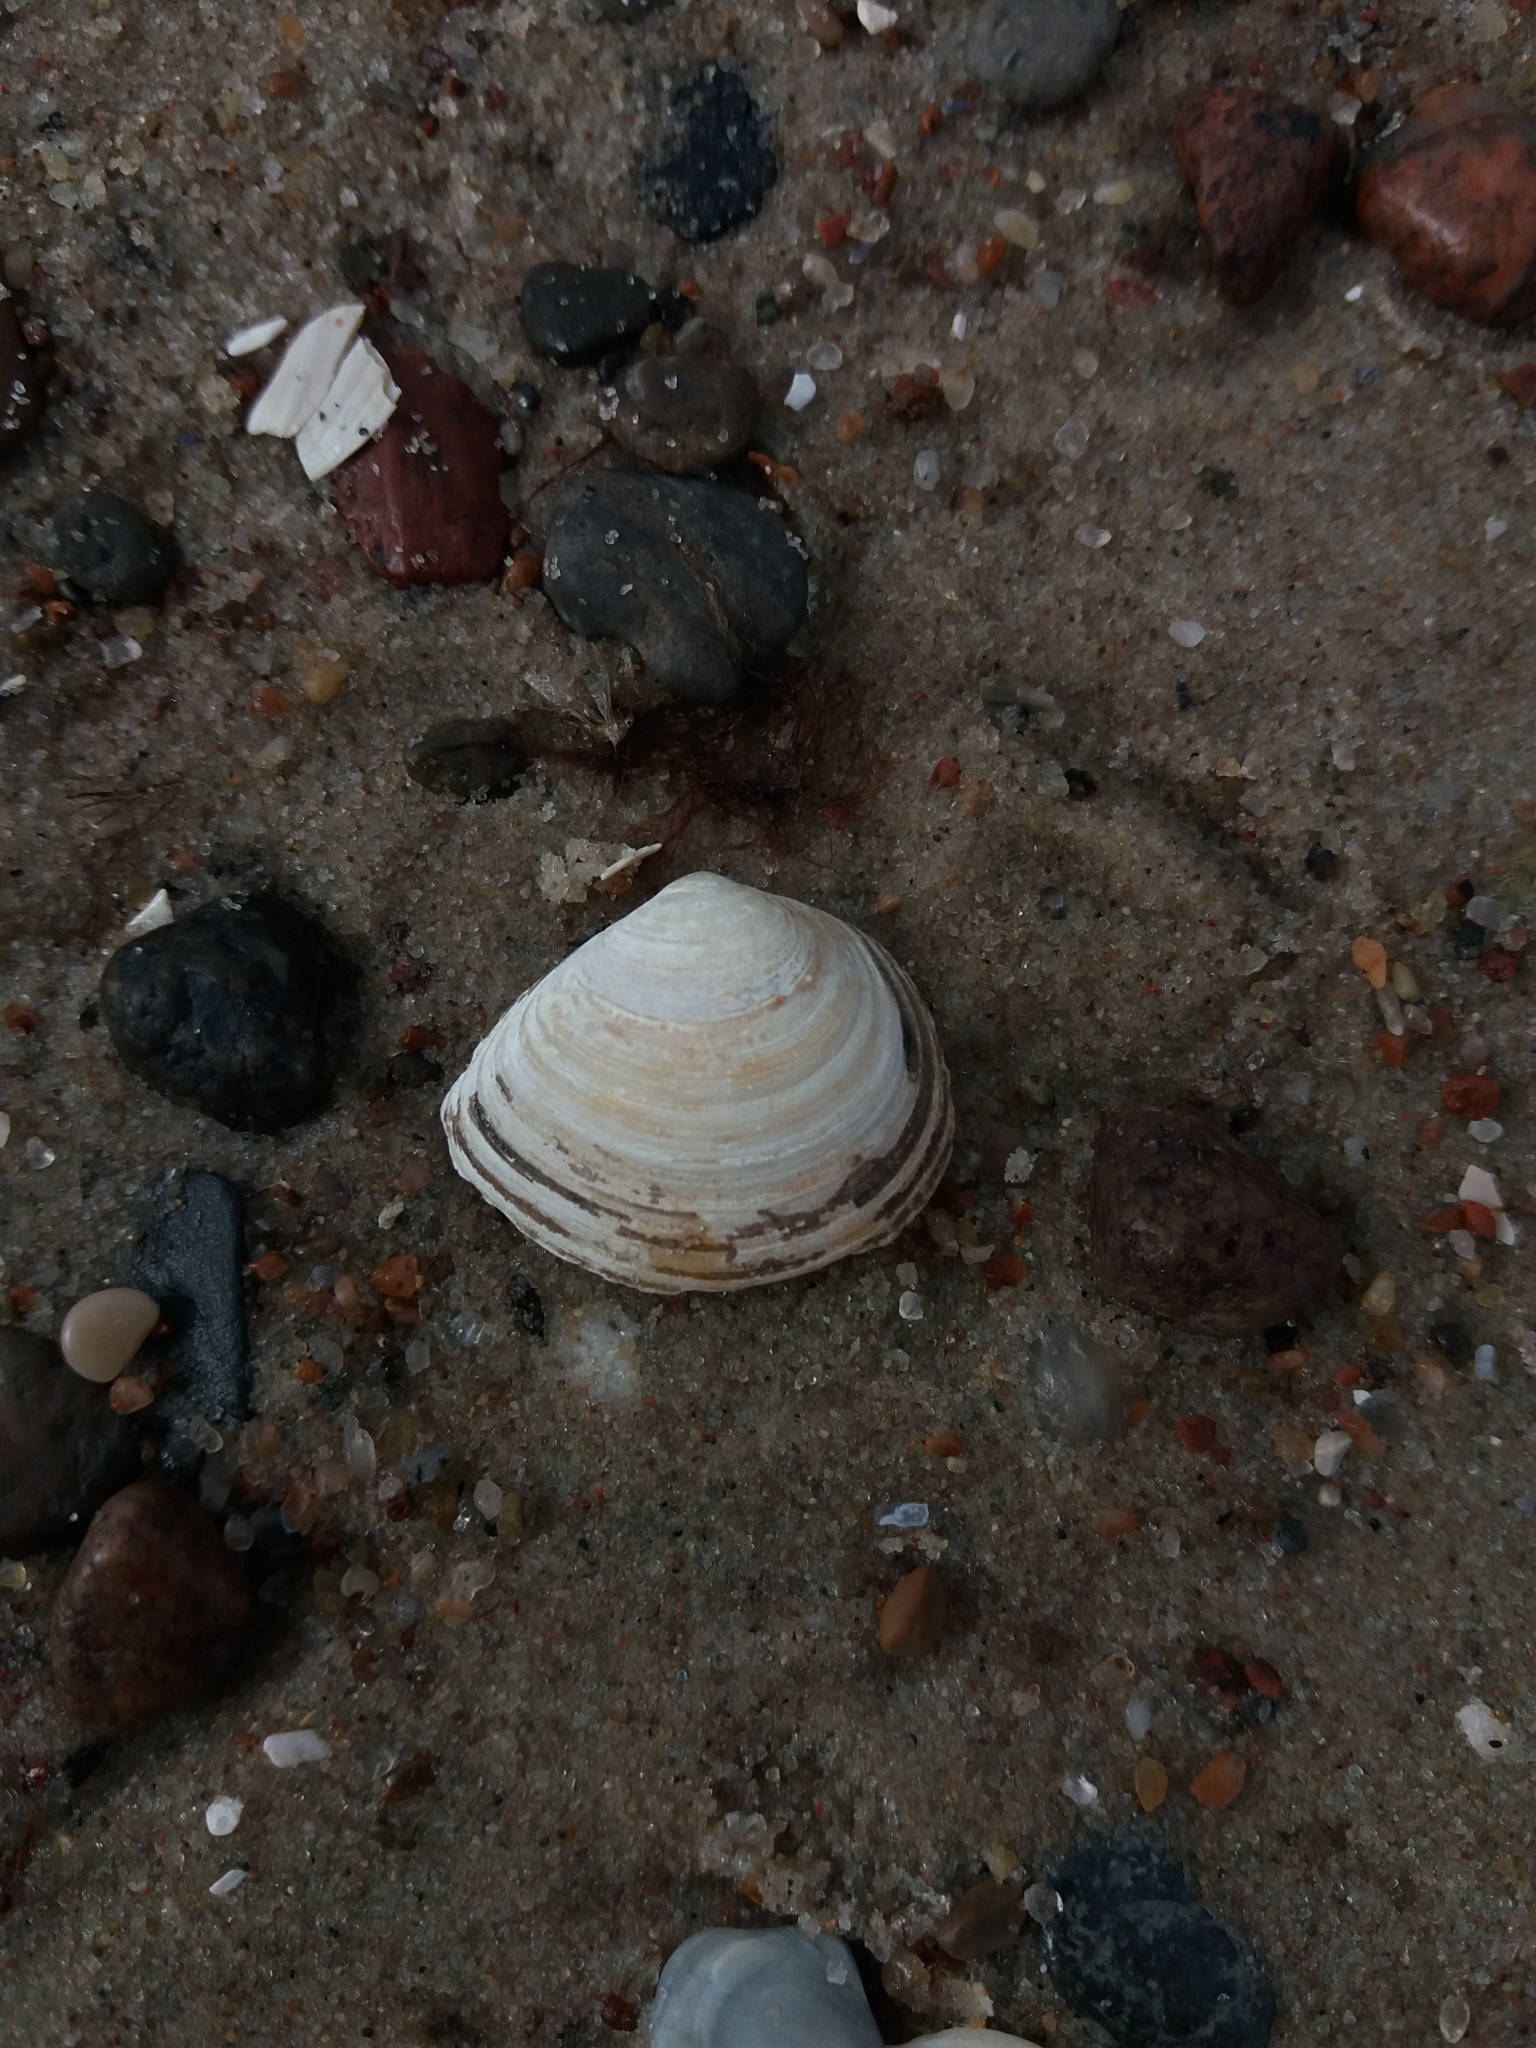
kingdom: Animalia
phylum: Mollusca
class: Bivalvia
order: Cardiida
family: Tellinidae
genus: Macoma
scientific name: Macoma balthica
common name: Baltic tellin
